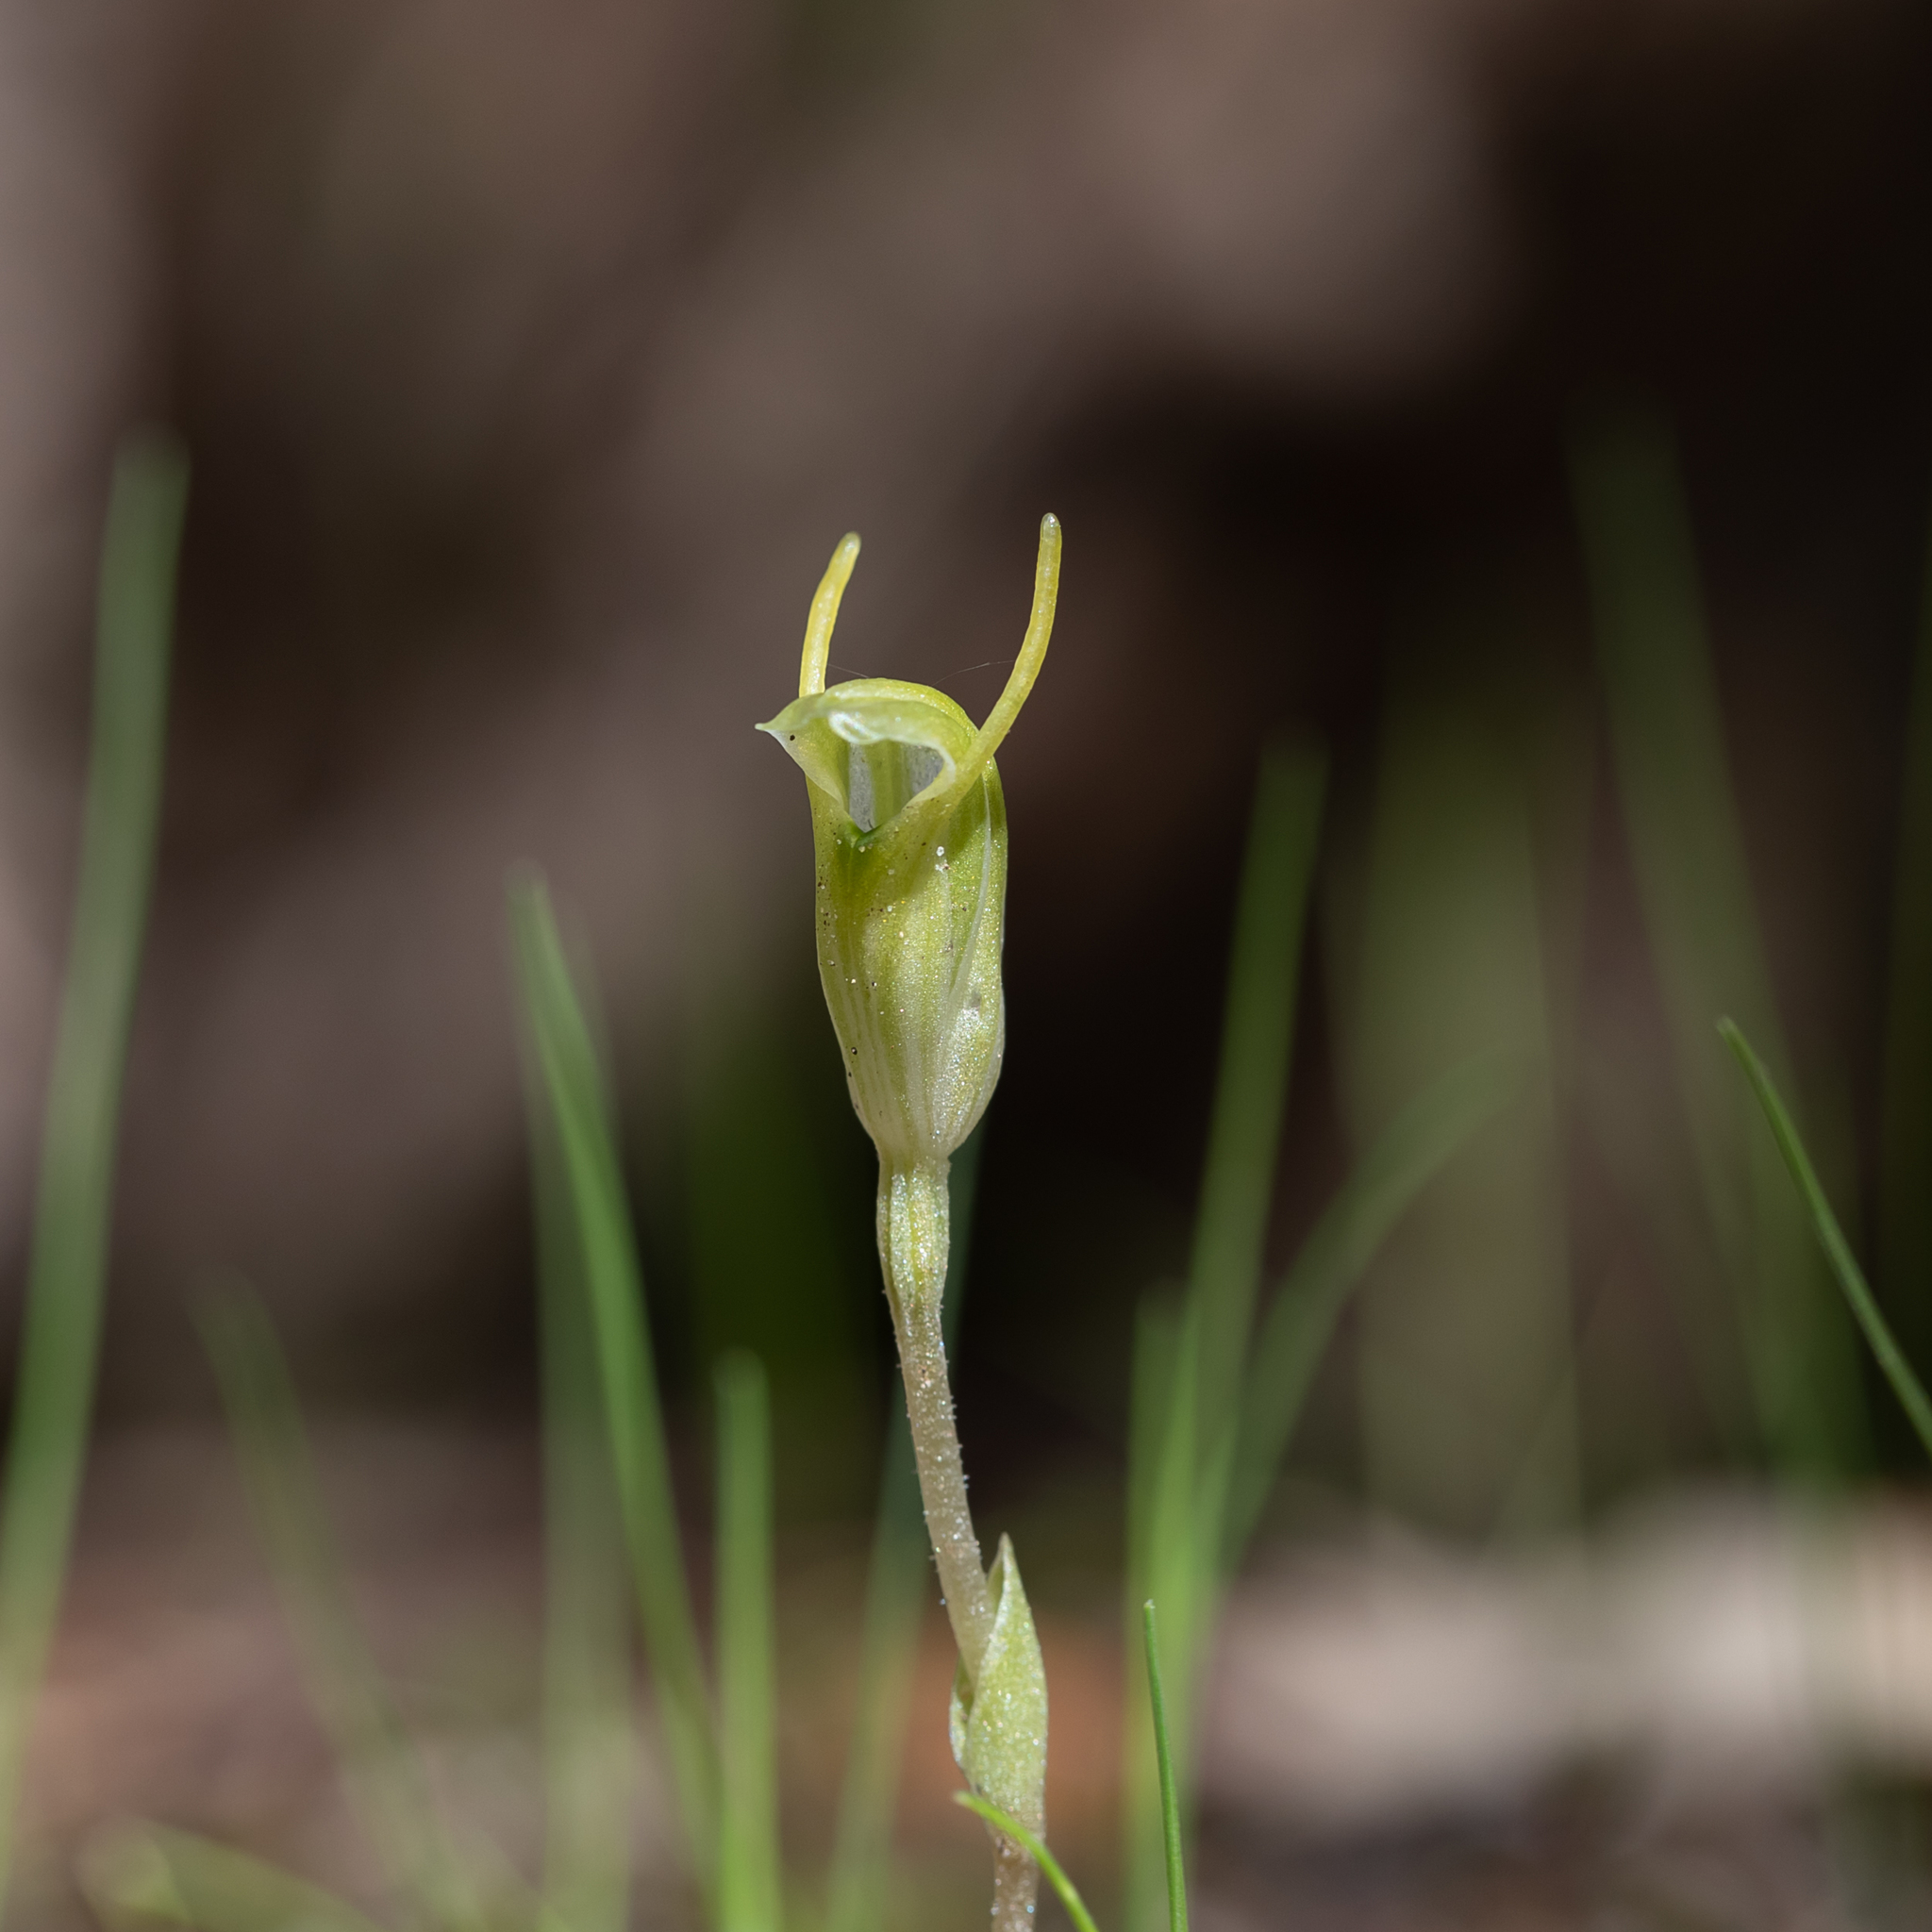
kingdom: Plantae
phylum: Tracheophyta
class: Liliopsida
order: Asparagales
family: Orchidaceae
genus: Pterostylis
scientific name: Pterostylis nana
